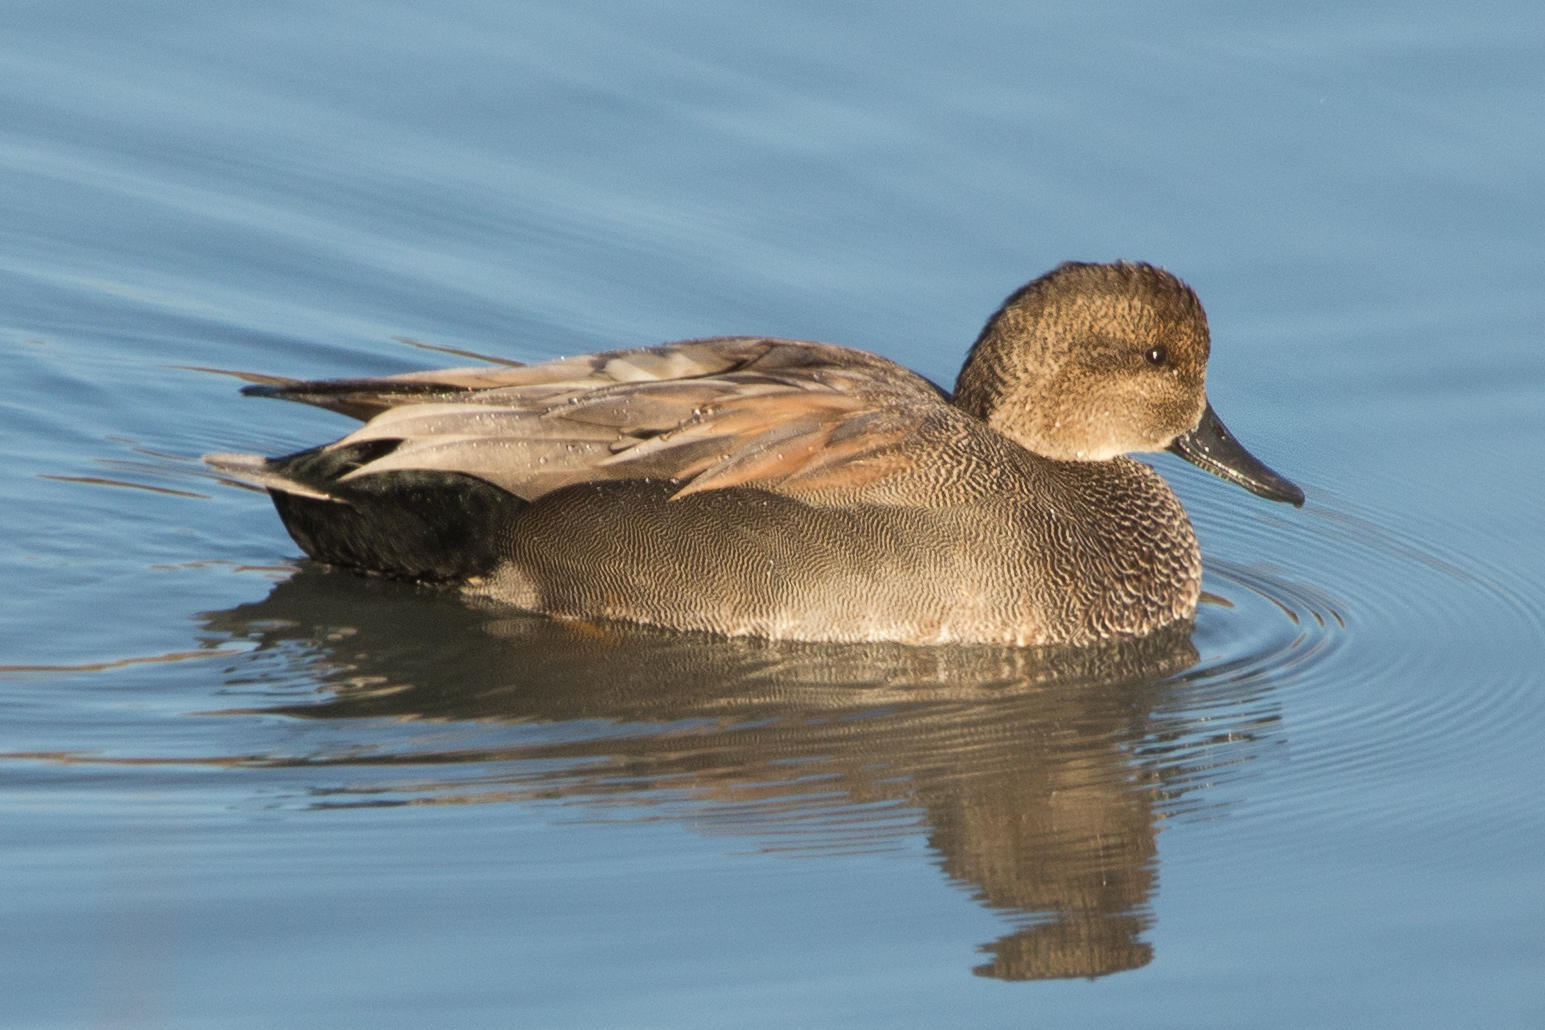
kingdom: Animalia
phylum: Chordata
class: Aves
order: Anseriformes
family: Anatidae
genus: Mareca
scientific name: Mareca strepera
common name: Gadwall
